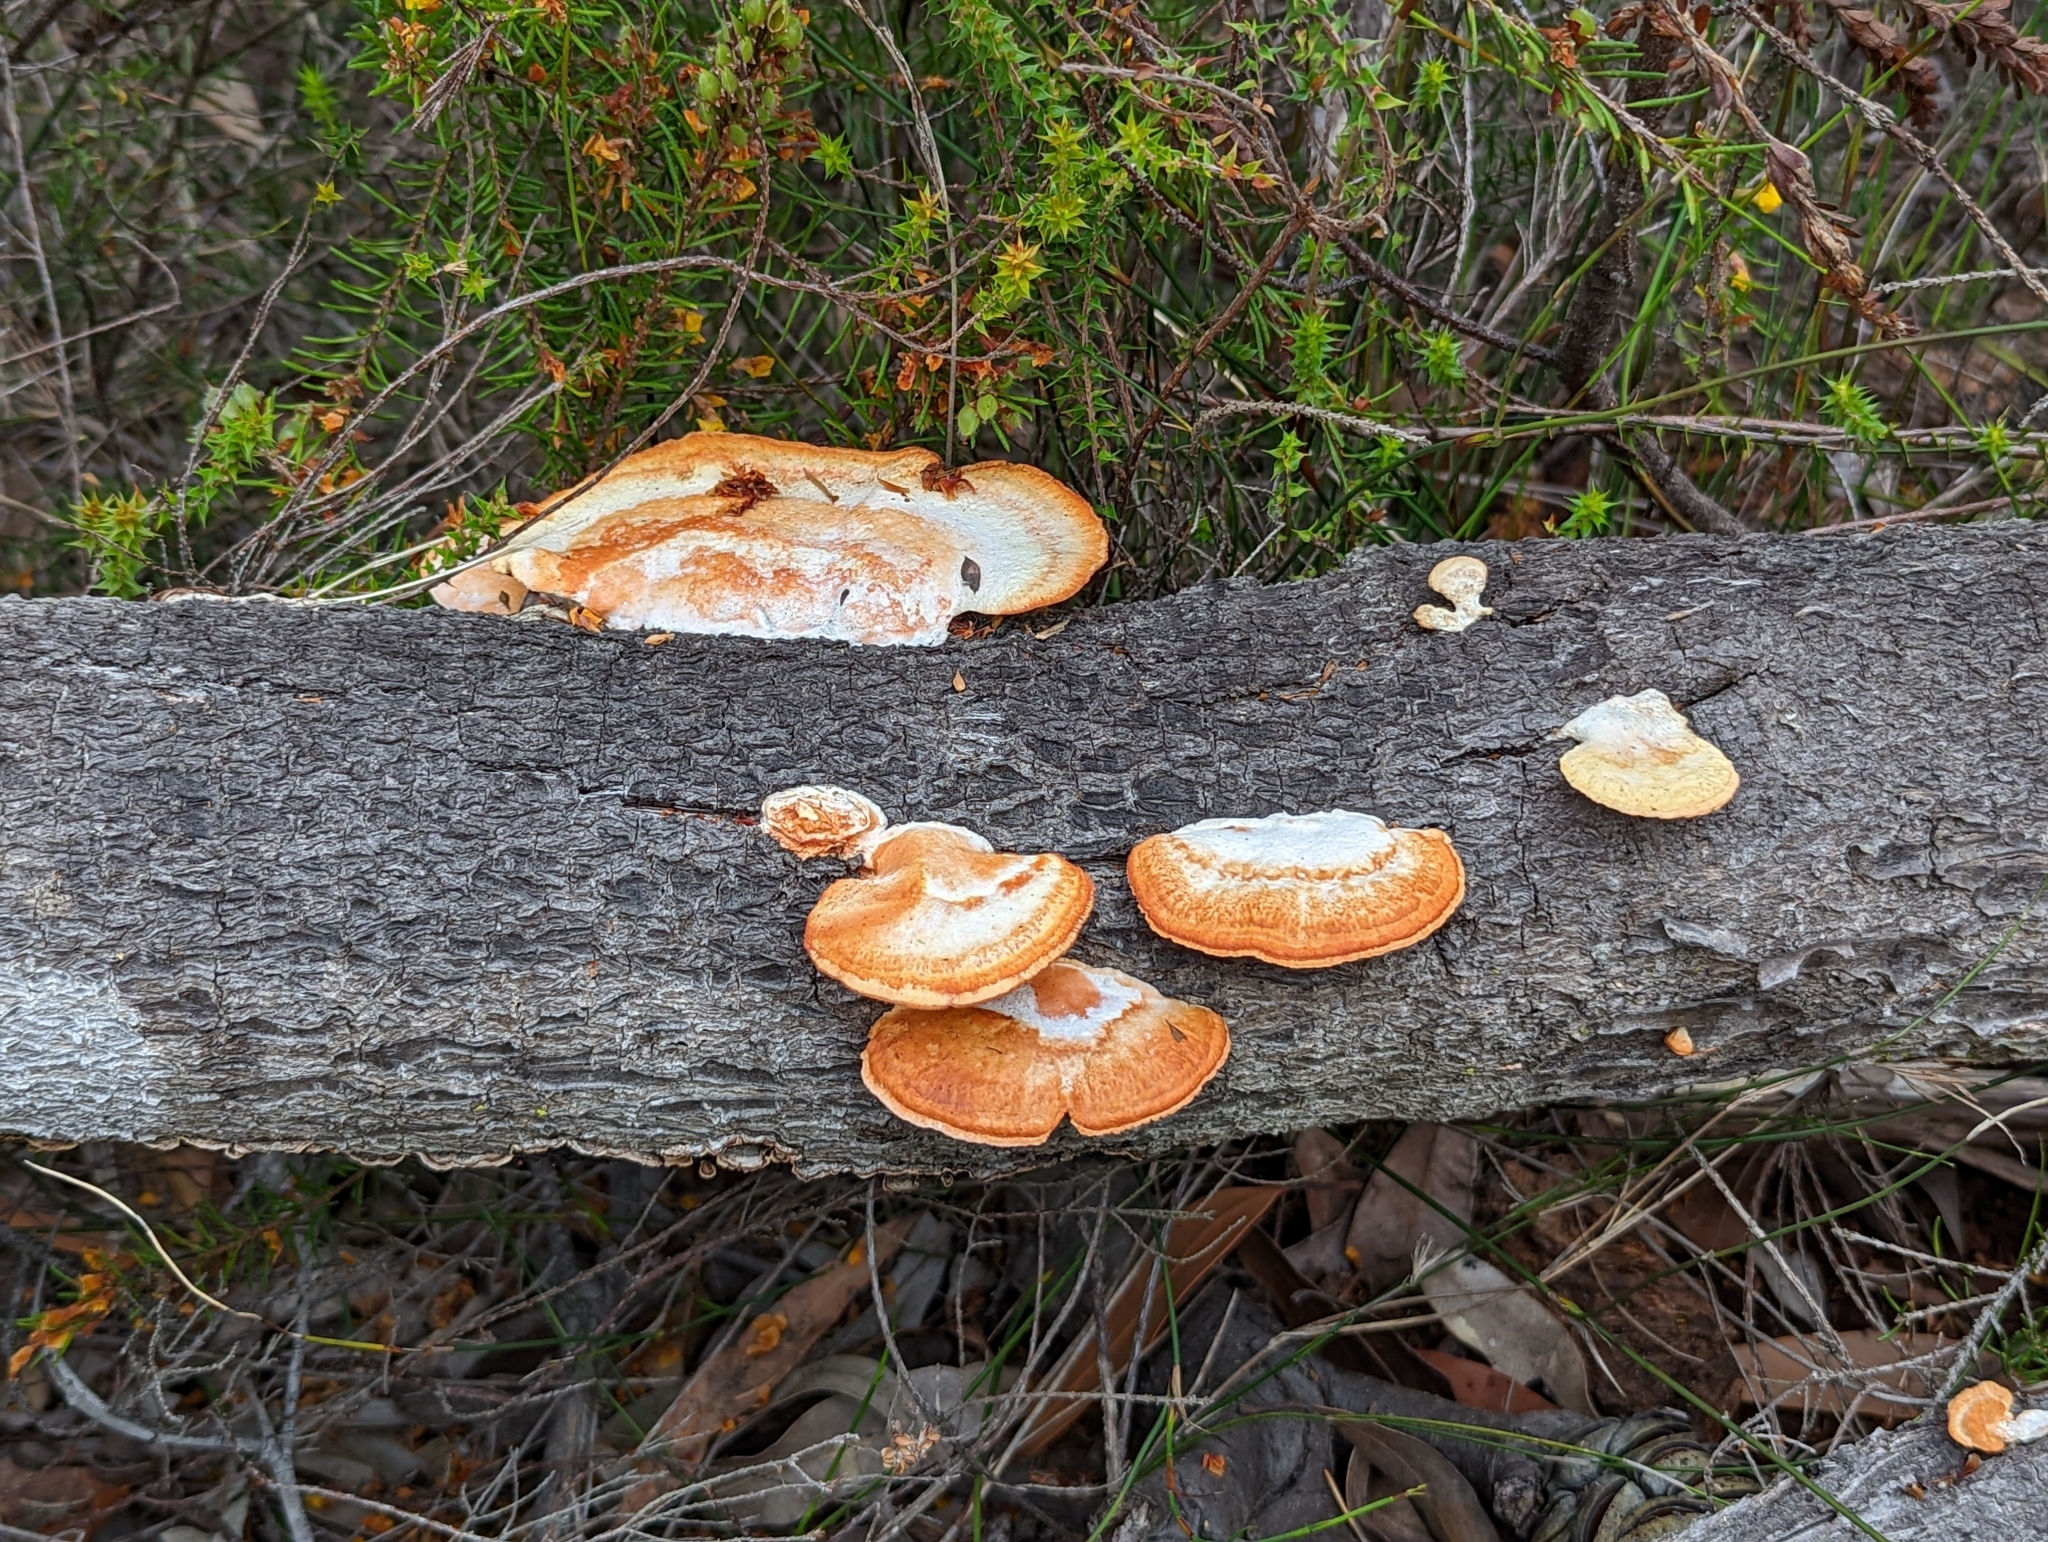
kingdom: Fungi
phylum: Basidiomycota
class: Agaricomycetes
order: Polyporales
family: Polyporaceae
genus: Trametes
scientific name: Trametes coccinea
